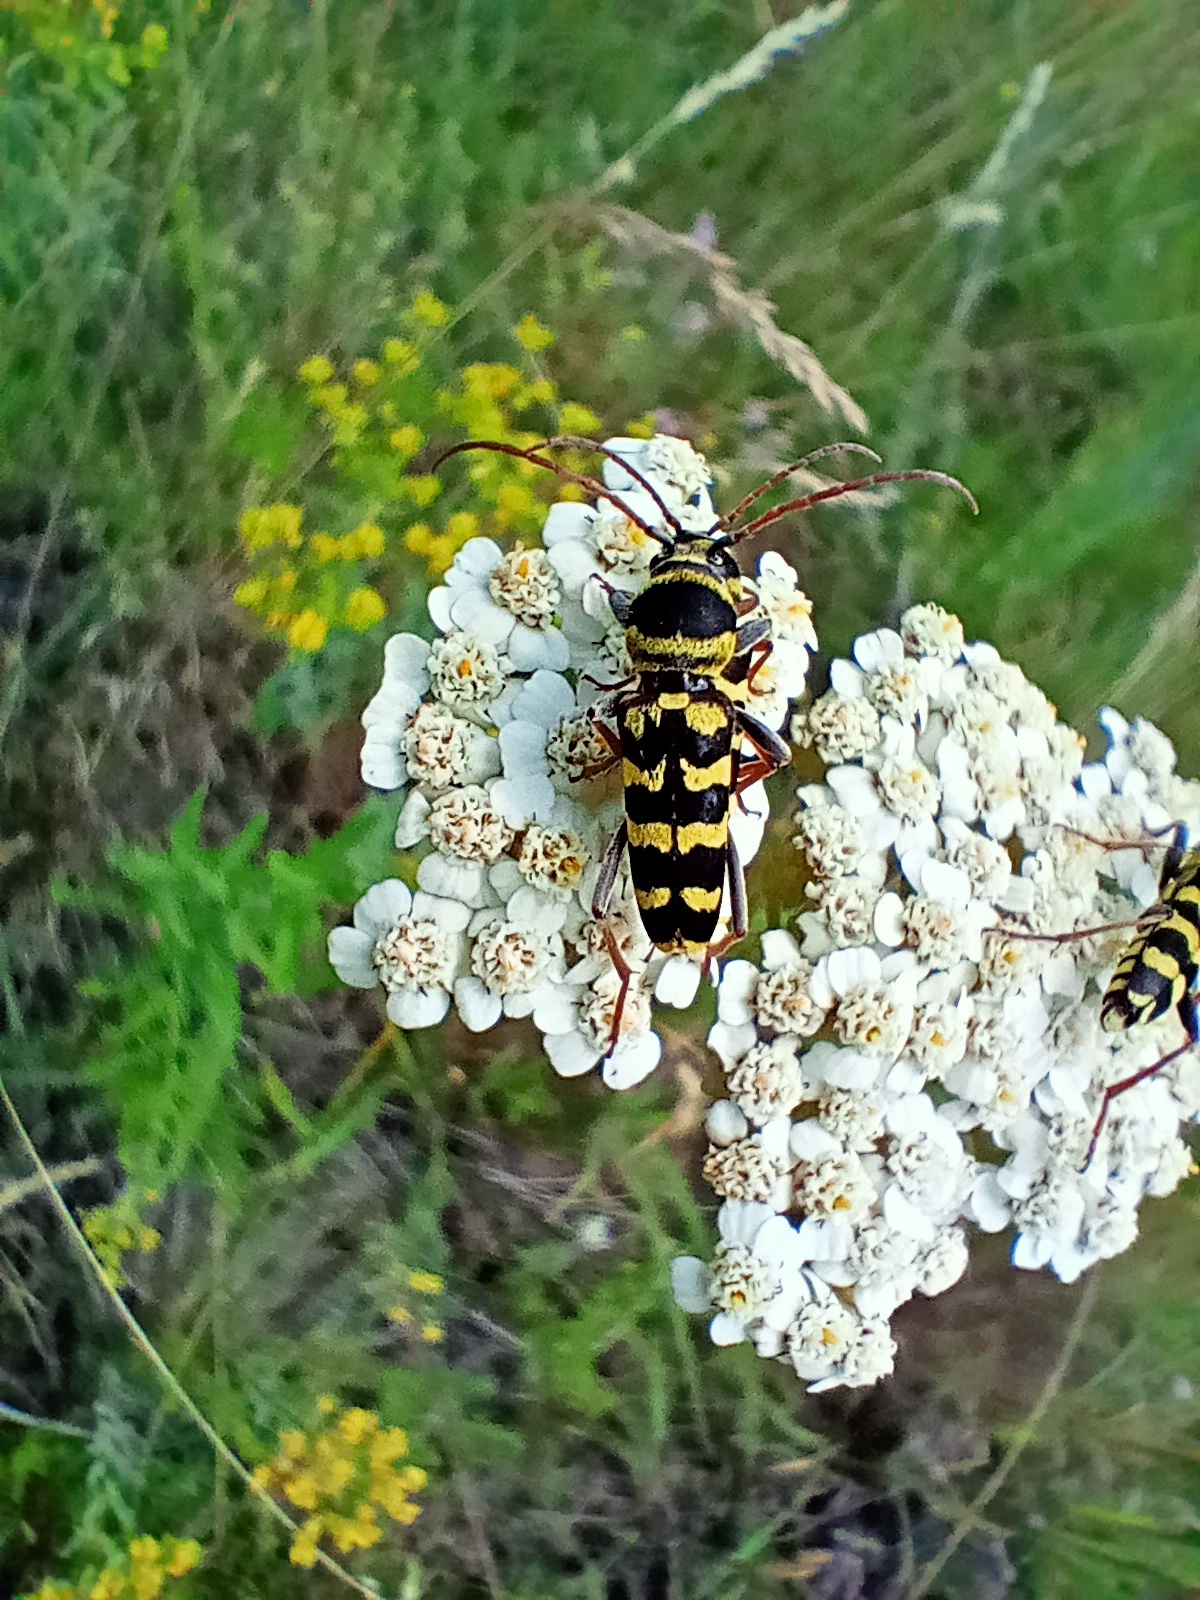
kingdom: Animalia
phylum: Arthropoda
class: Insecta
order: Coleoptera
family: Cerambycidae
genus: Plagionotus
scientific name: Plagionotus floralis
